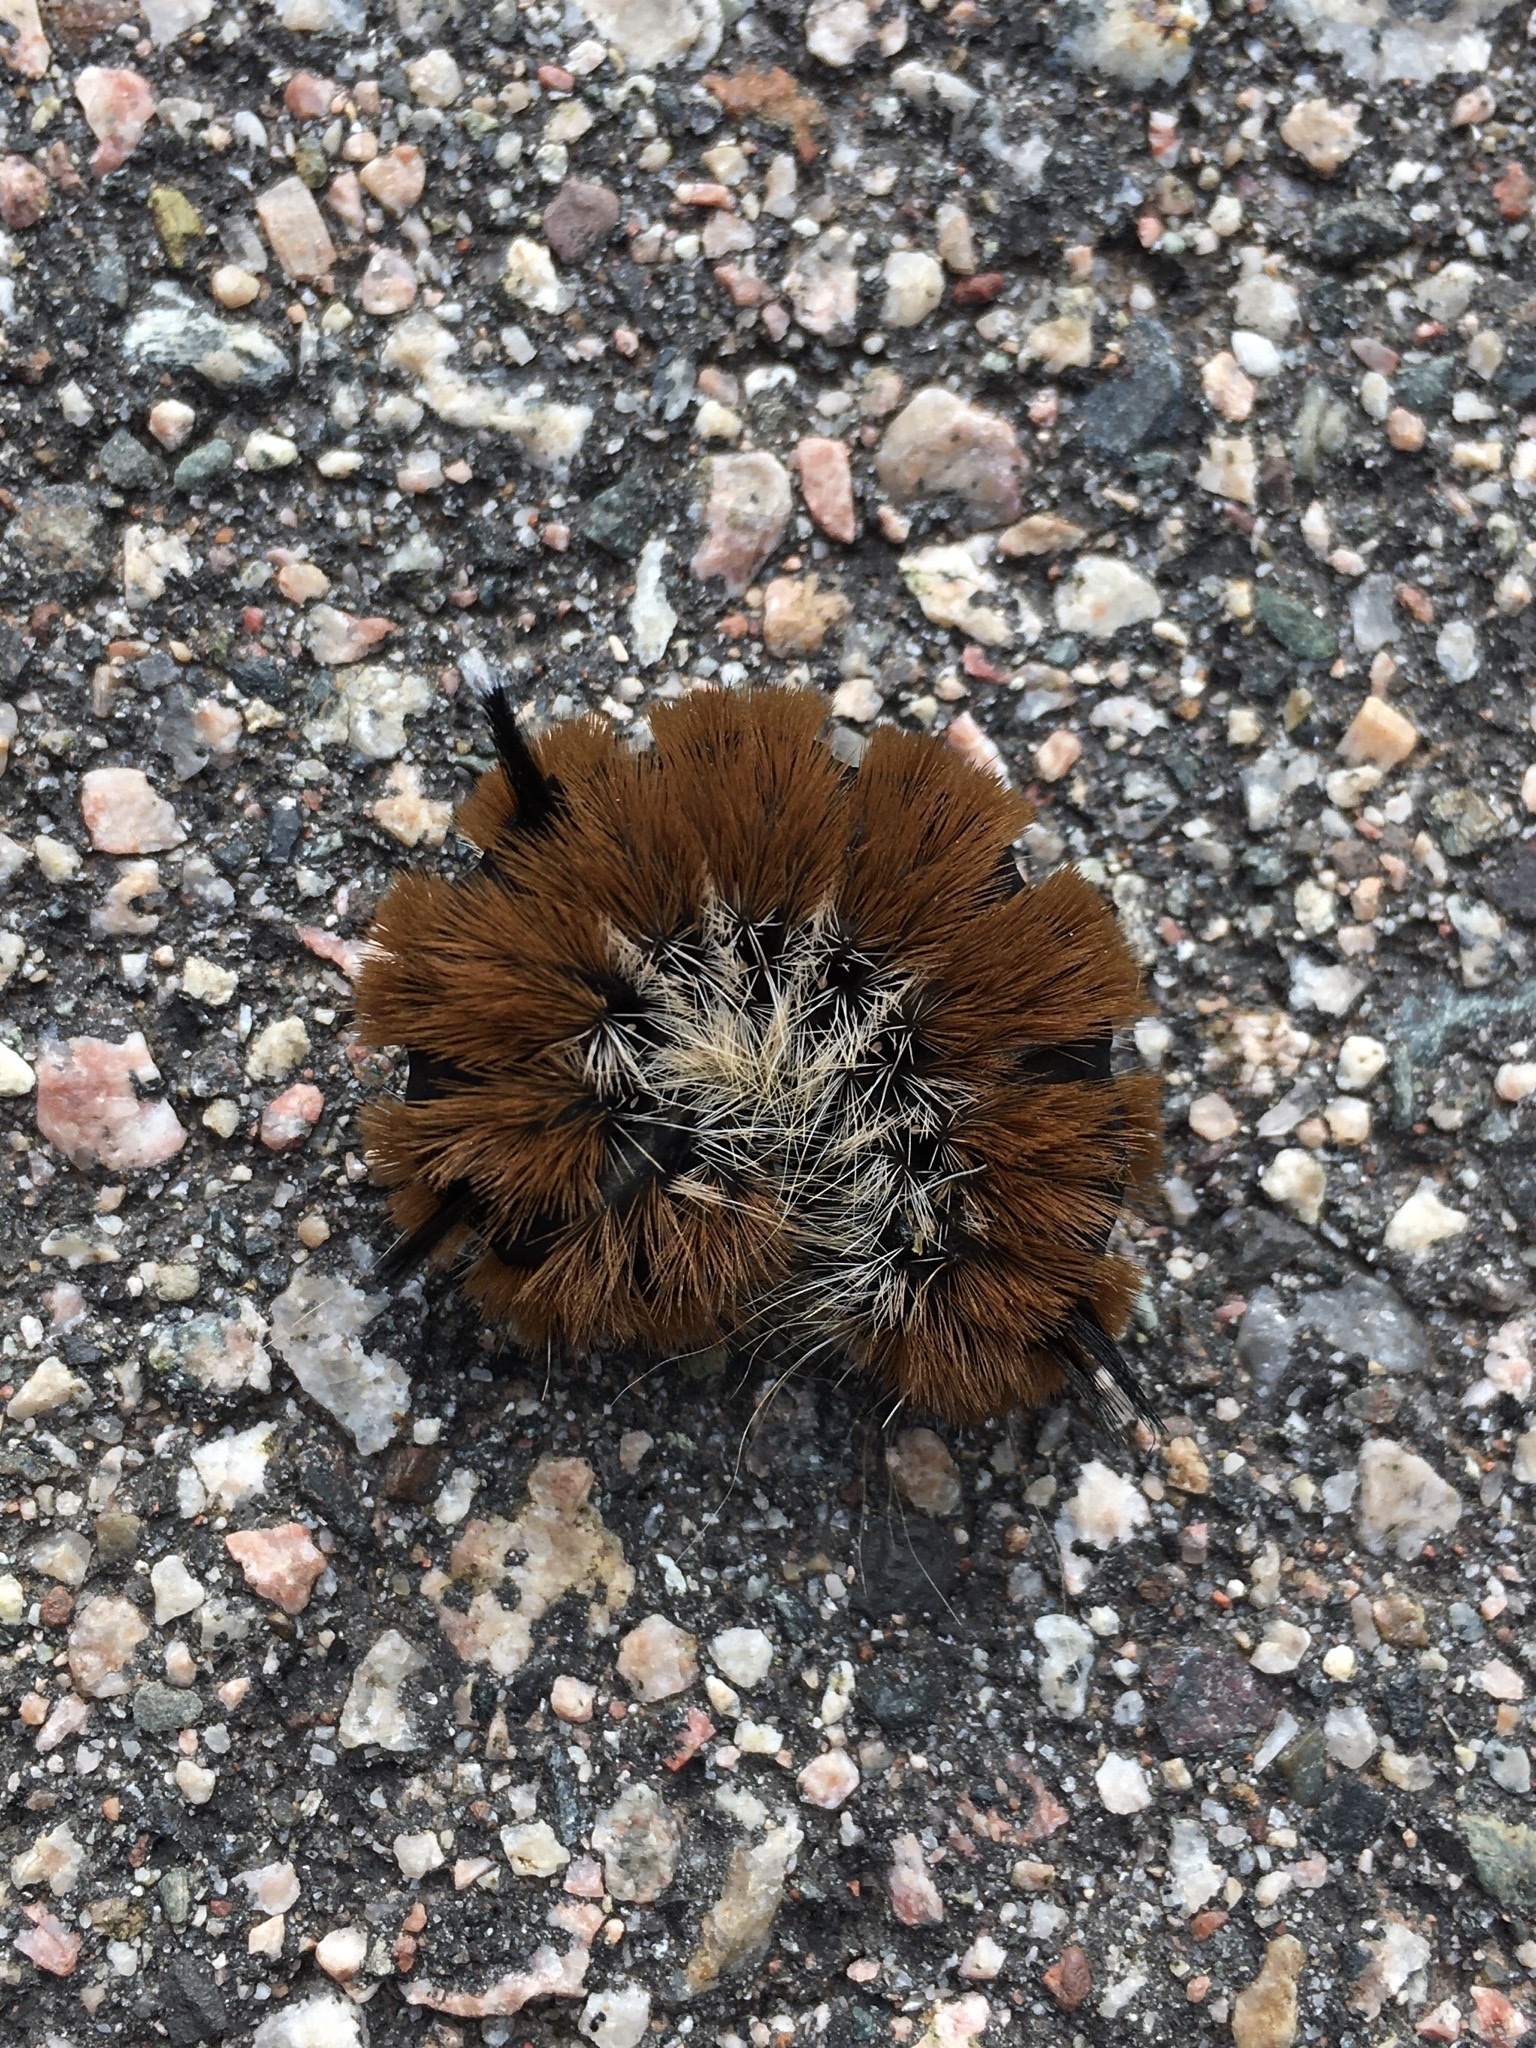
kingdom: Animalia
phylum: Arthropoda
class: Insecta
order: Lepidoptera
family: Noctuidae
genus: Acronicta
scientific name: Acronicta insita
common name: Large gray dagger
